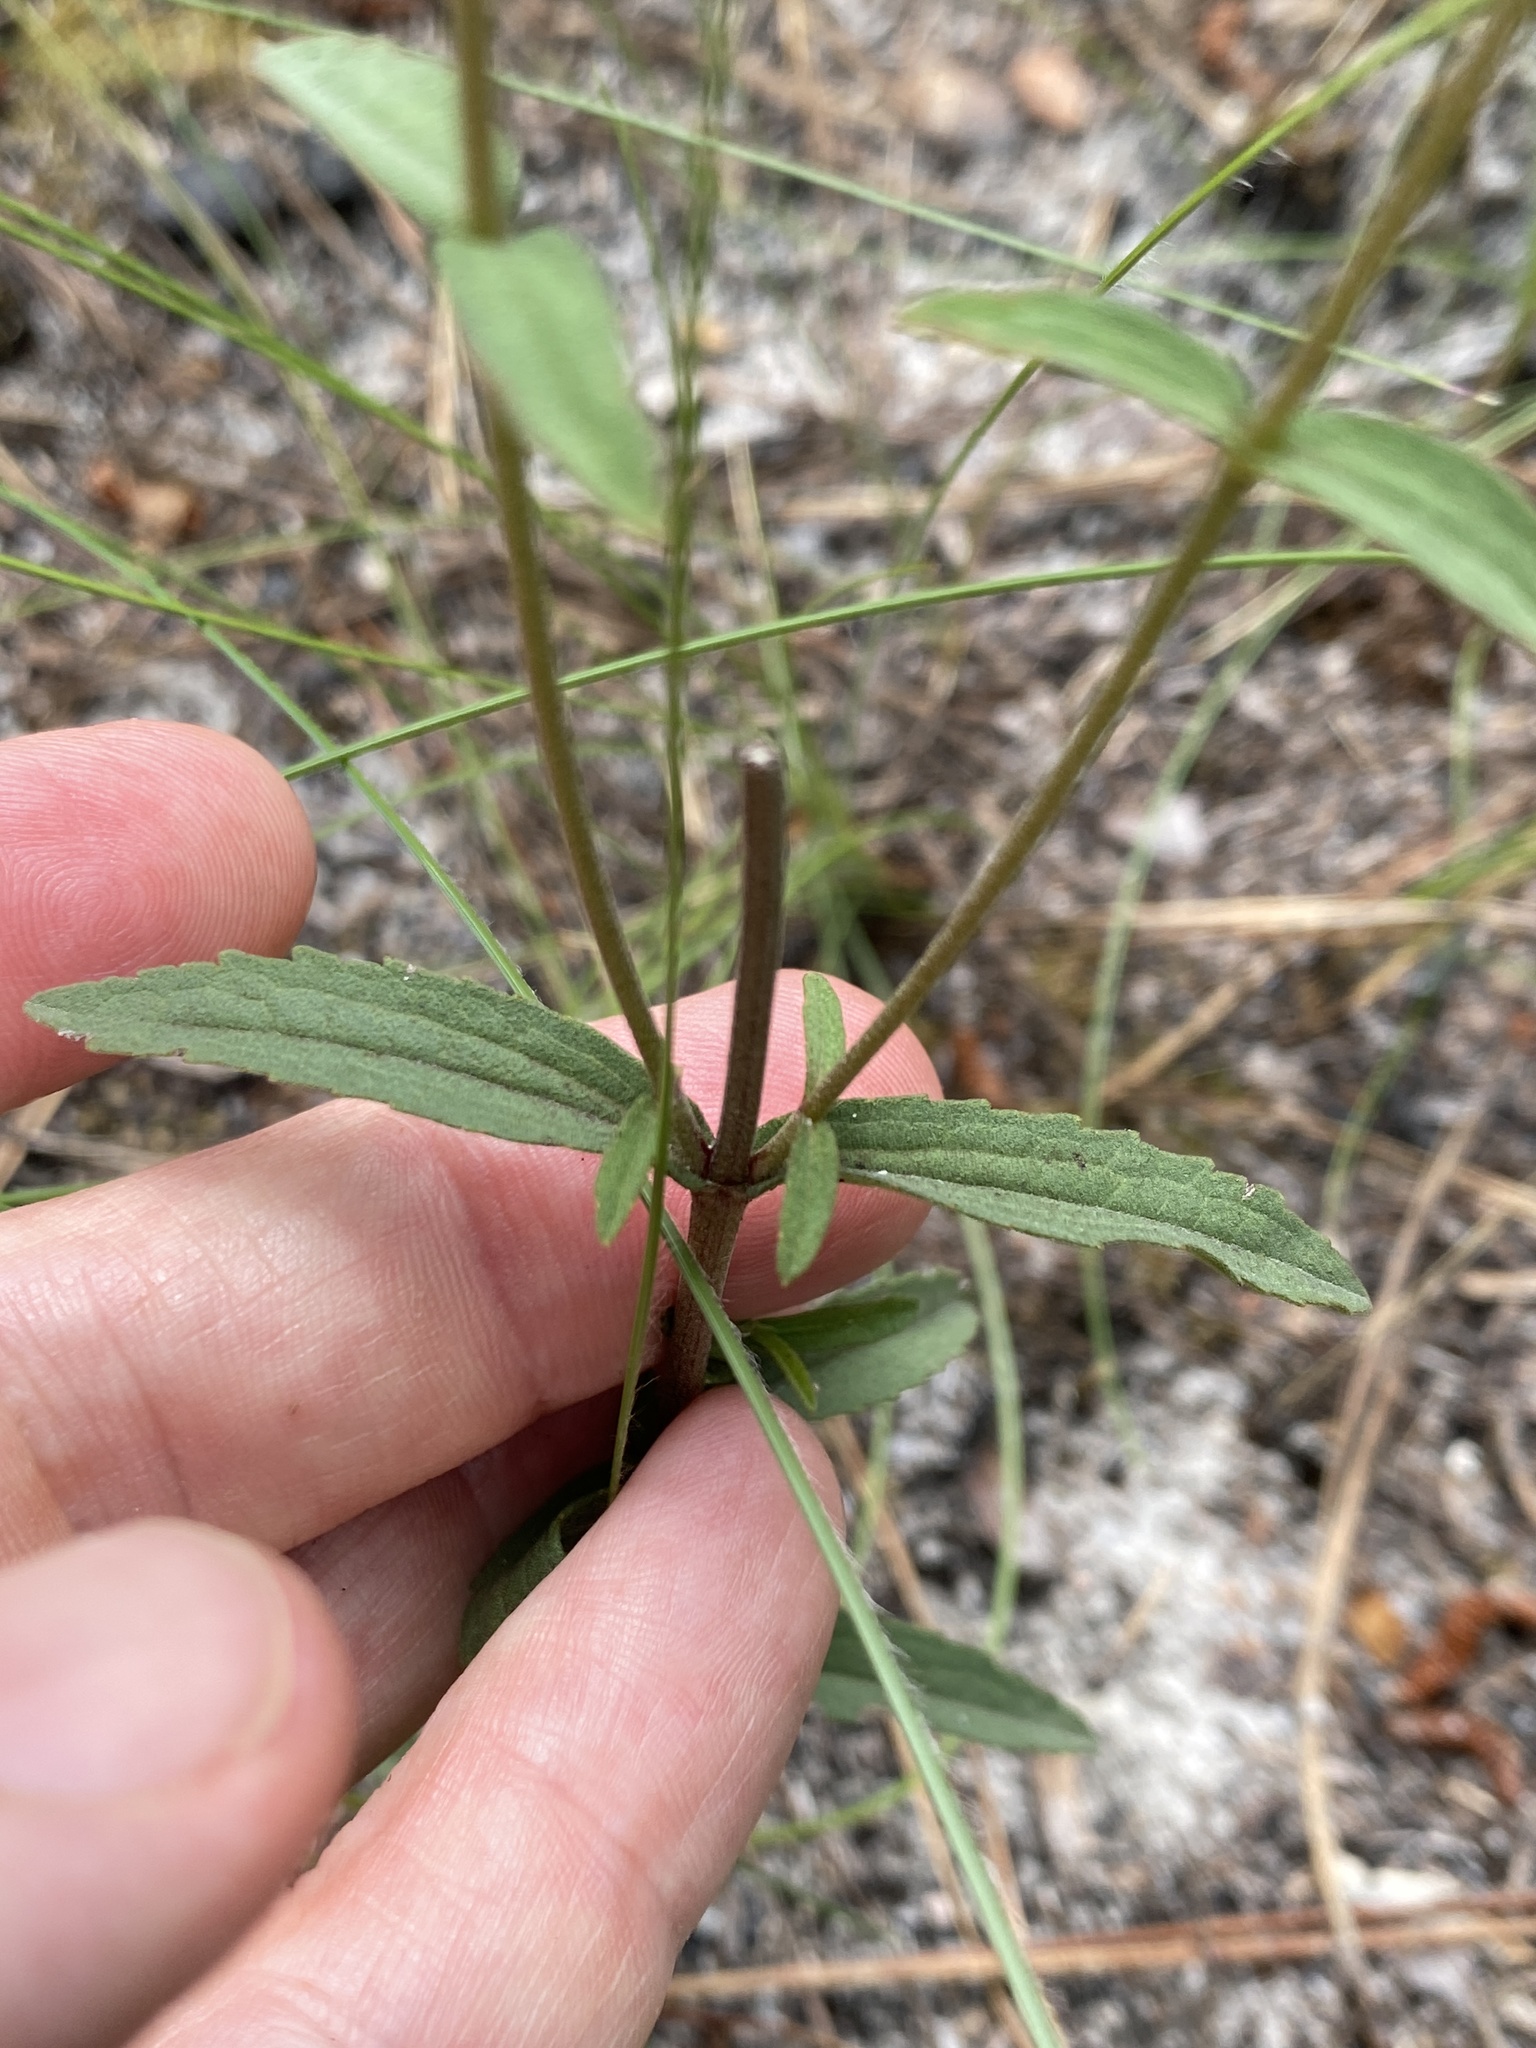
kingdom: Plantae
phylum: Tracheophyta
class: Magnoliopsida
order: Asterales
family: Asteraceae
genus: Eupatorium
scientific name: Eupatorium leucolepis
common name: Justiceweed
